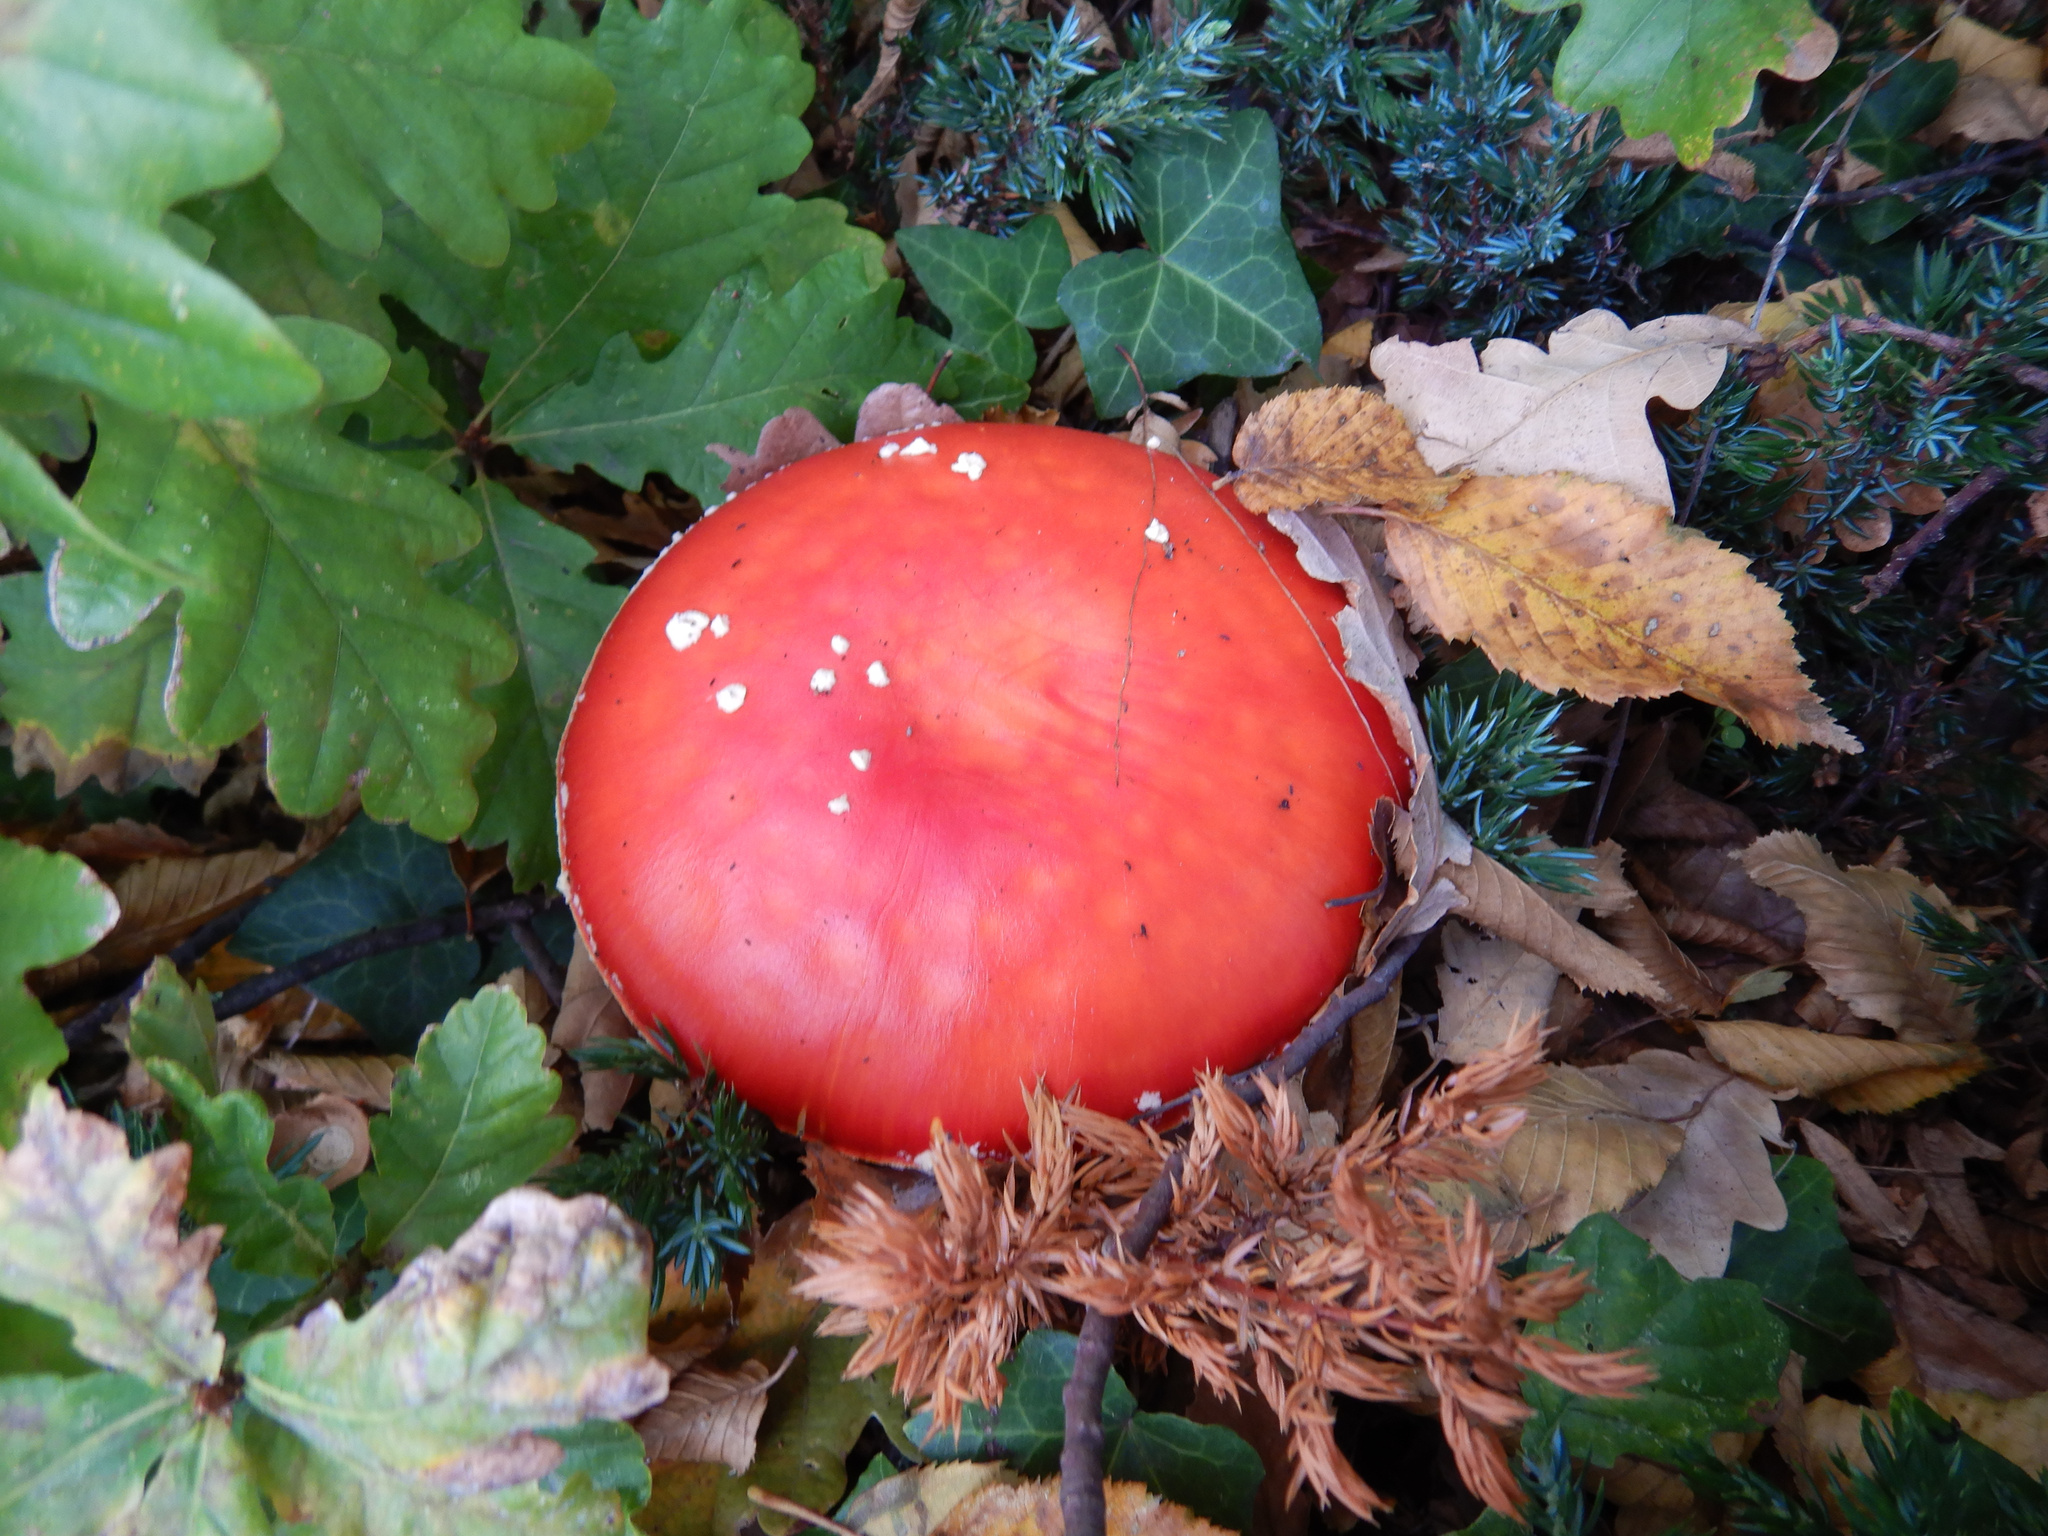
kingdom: Fungi
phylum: Basidiomycota
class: Agaricomycetes
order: Agaricales
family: Amanitaceae
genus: Amanita
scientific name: Amanita muscaria
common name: Fly agaric
